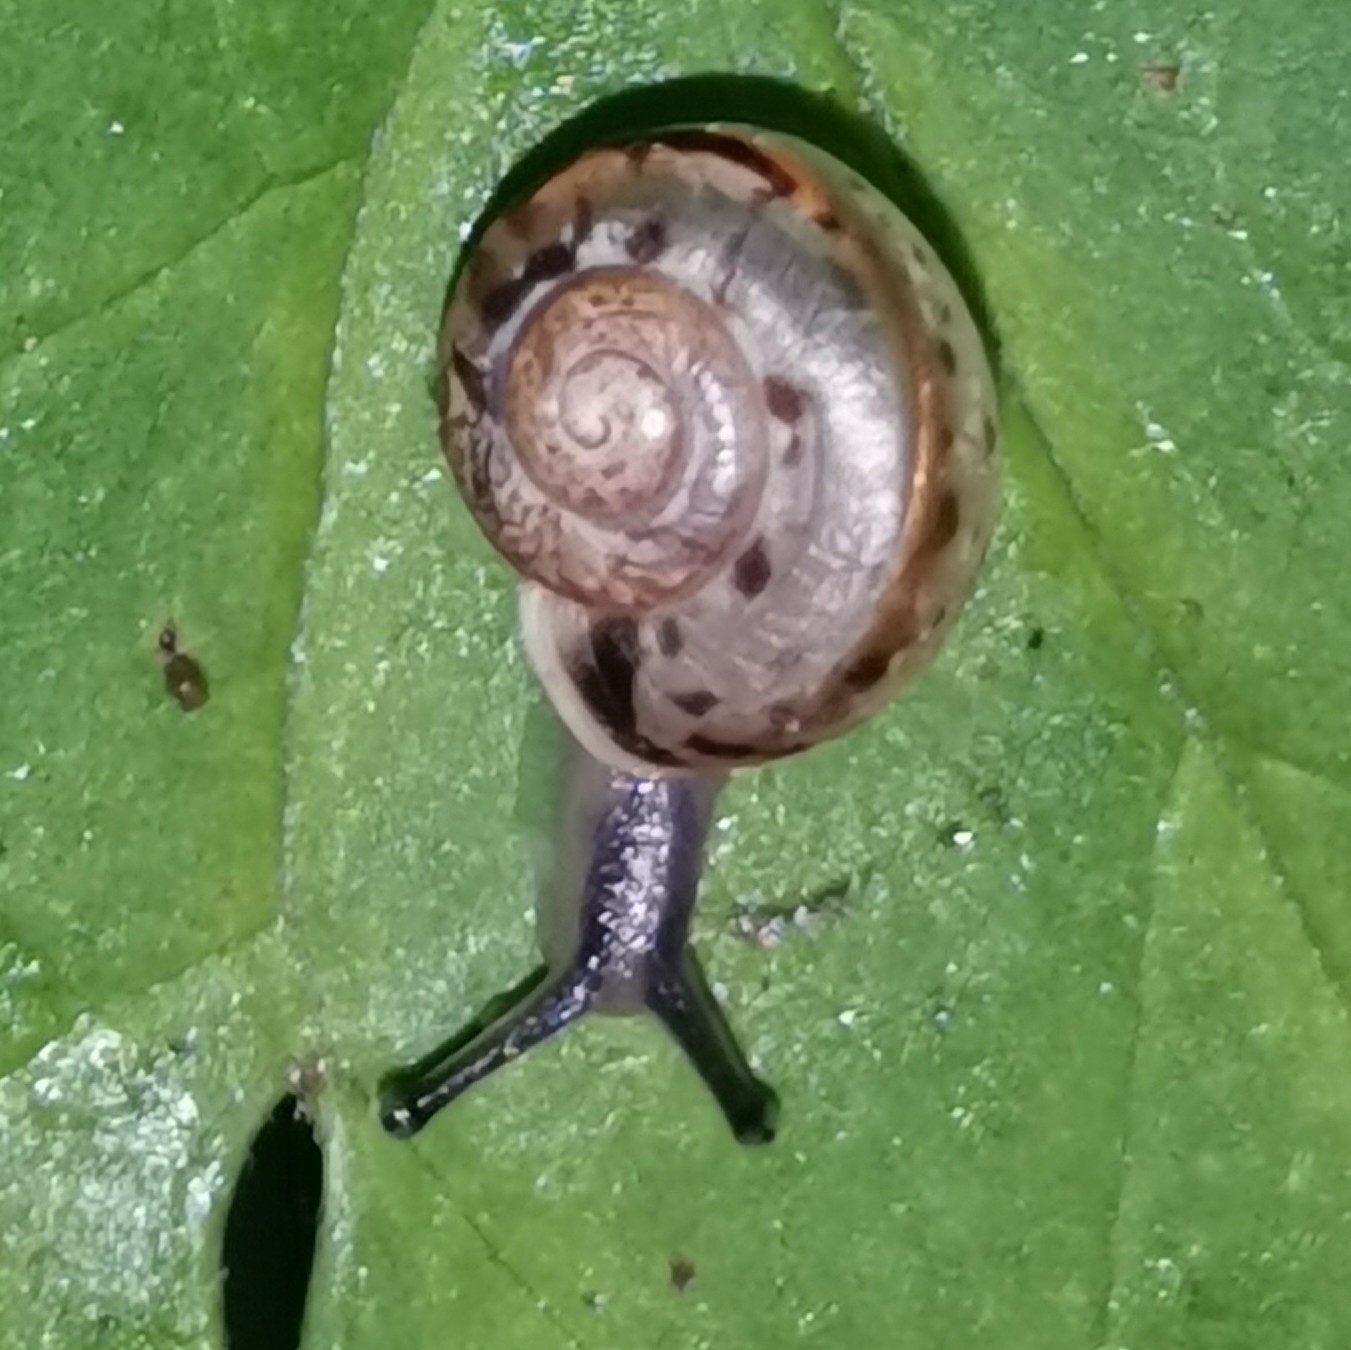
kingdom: Animalia
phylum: Mollusca
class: Gastropoda
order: Stylommatophora
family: Camaenidae
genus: Fruticicola
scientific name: Fruticicola fruticum
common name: Bush snail
